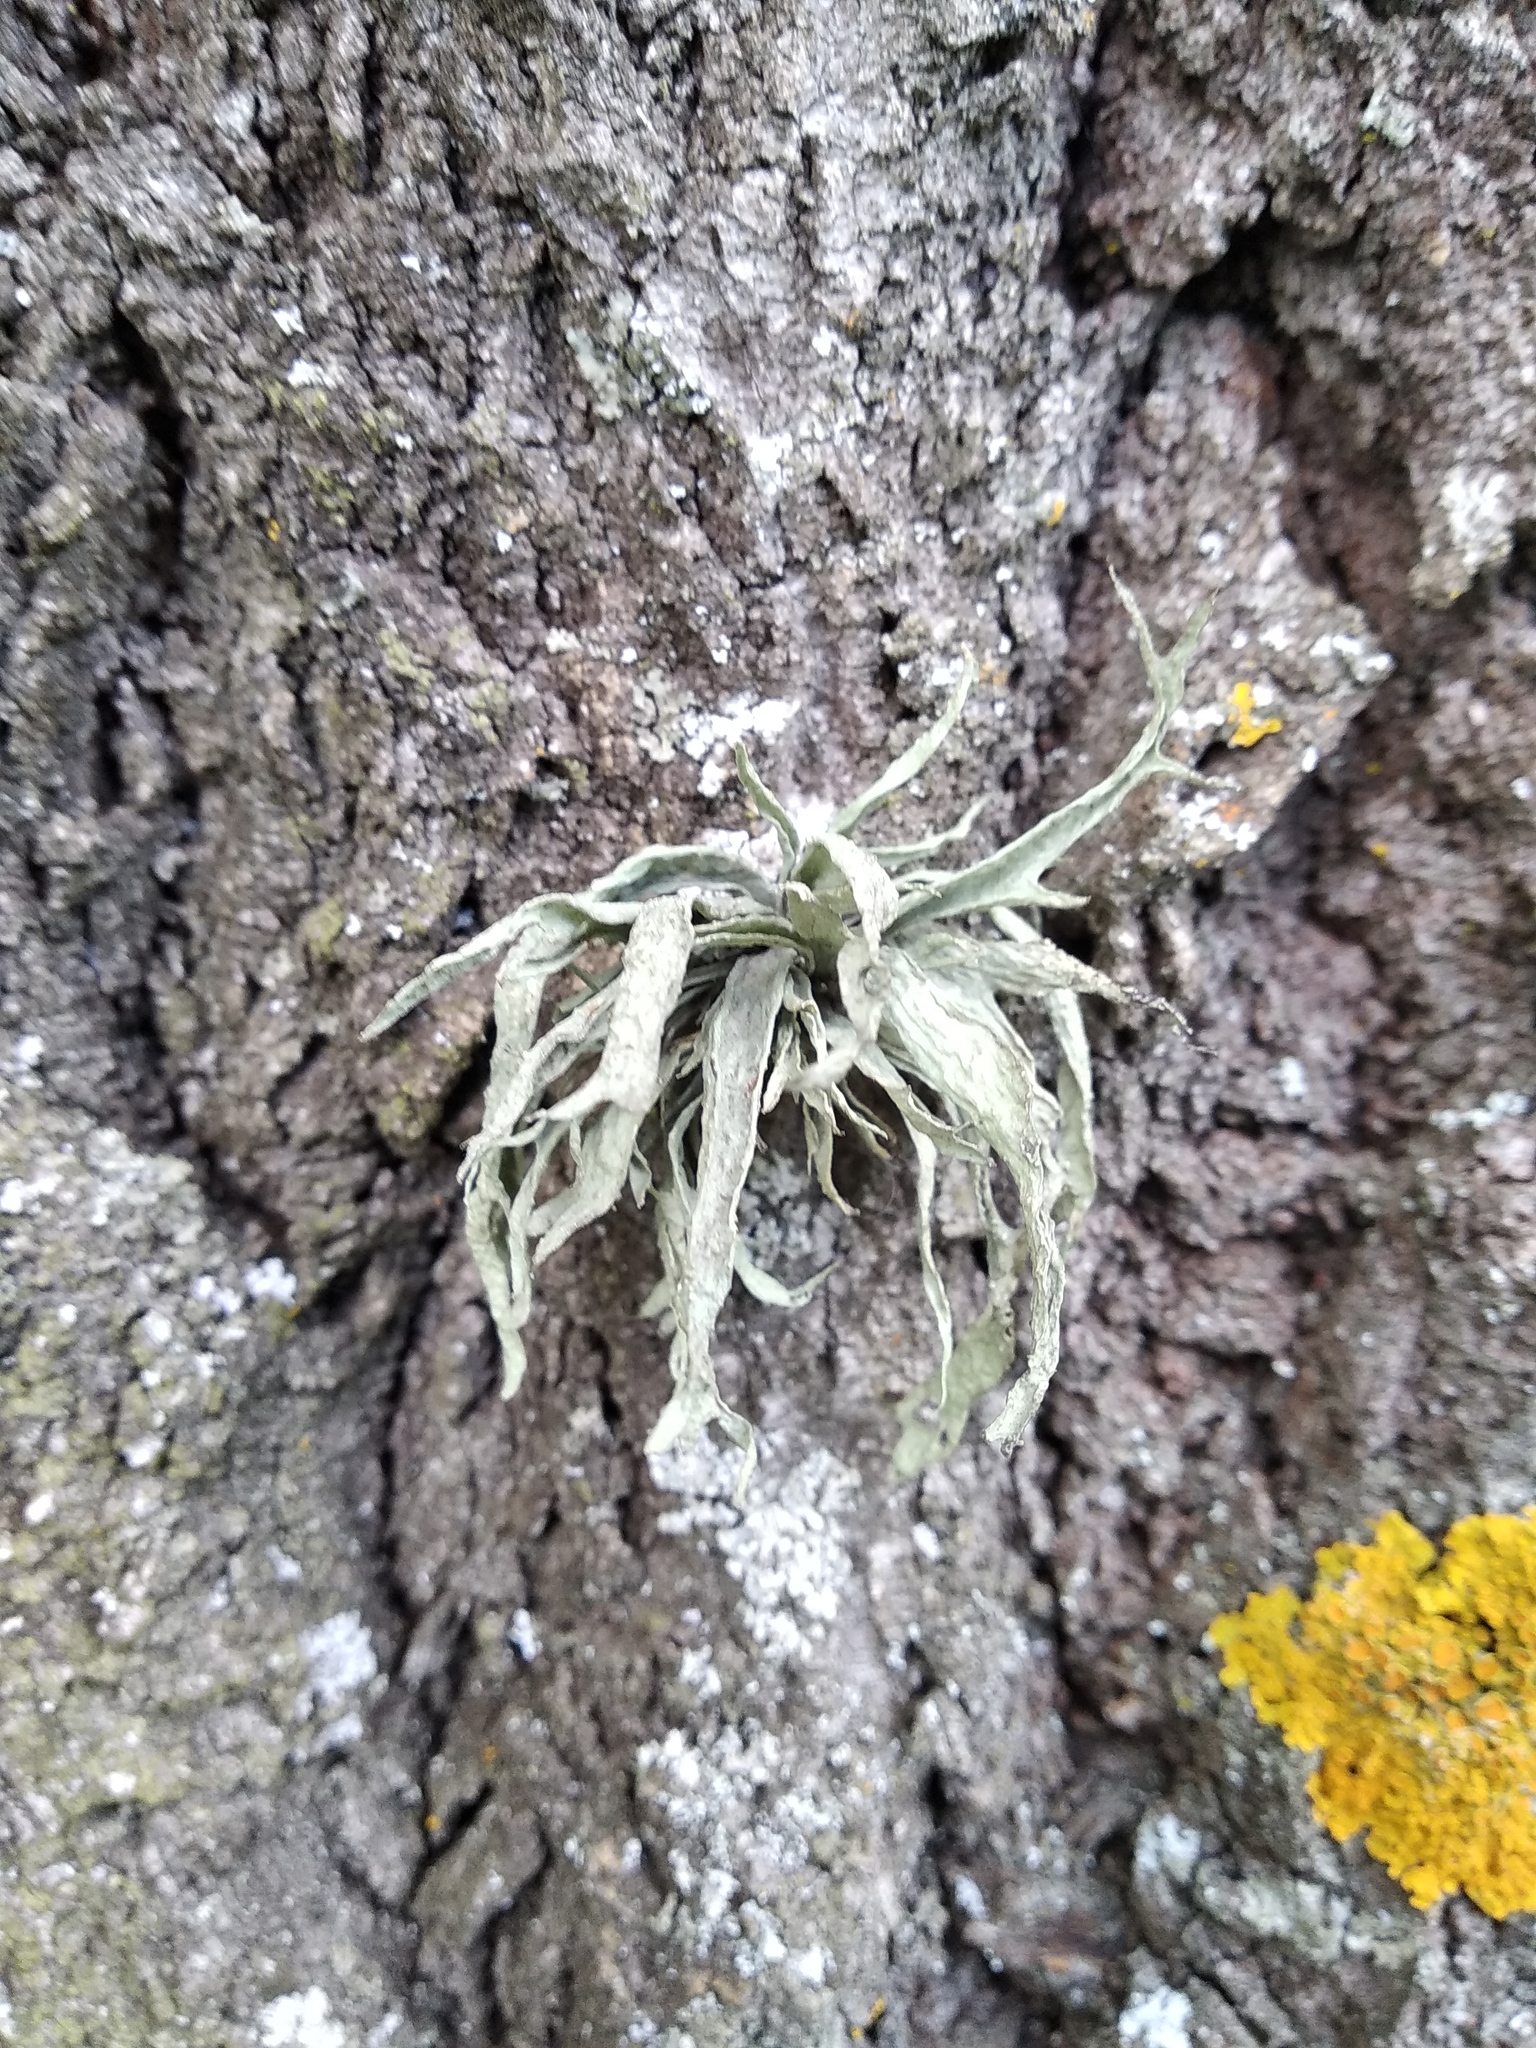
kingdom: Fungi
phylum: Ascomycota
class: Lecanoromycetes
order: Lecanorales
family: Ramalinaceae
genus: Ramalina
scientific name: Ramalina fraxinea
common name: Cartilage lichen
